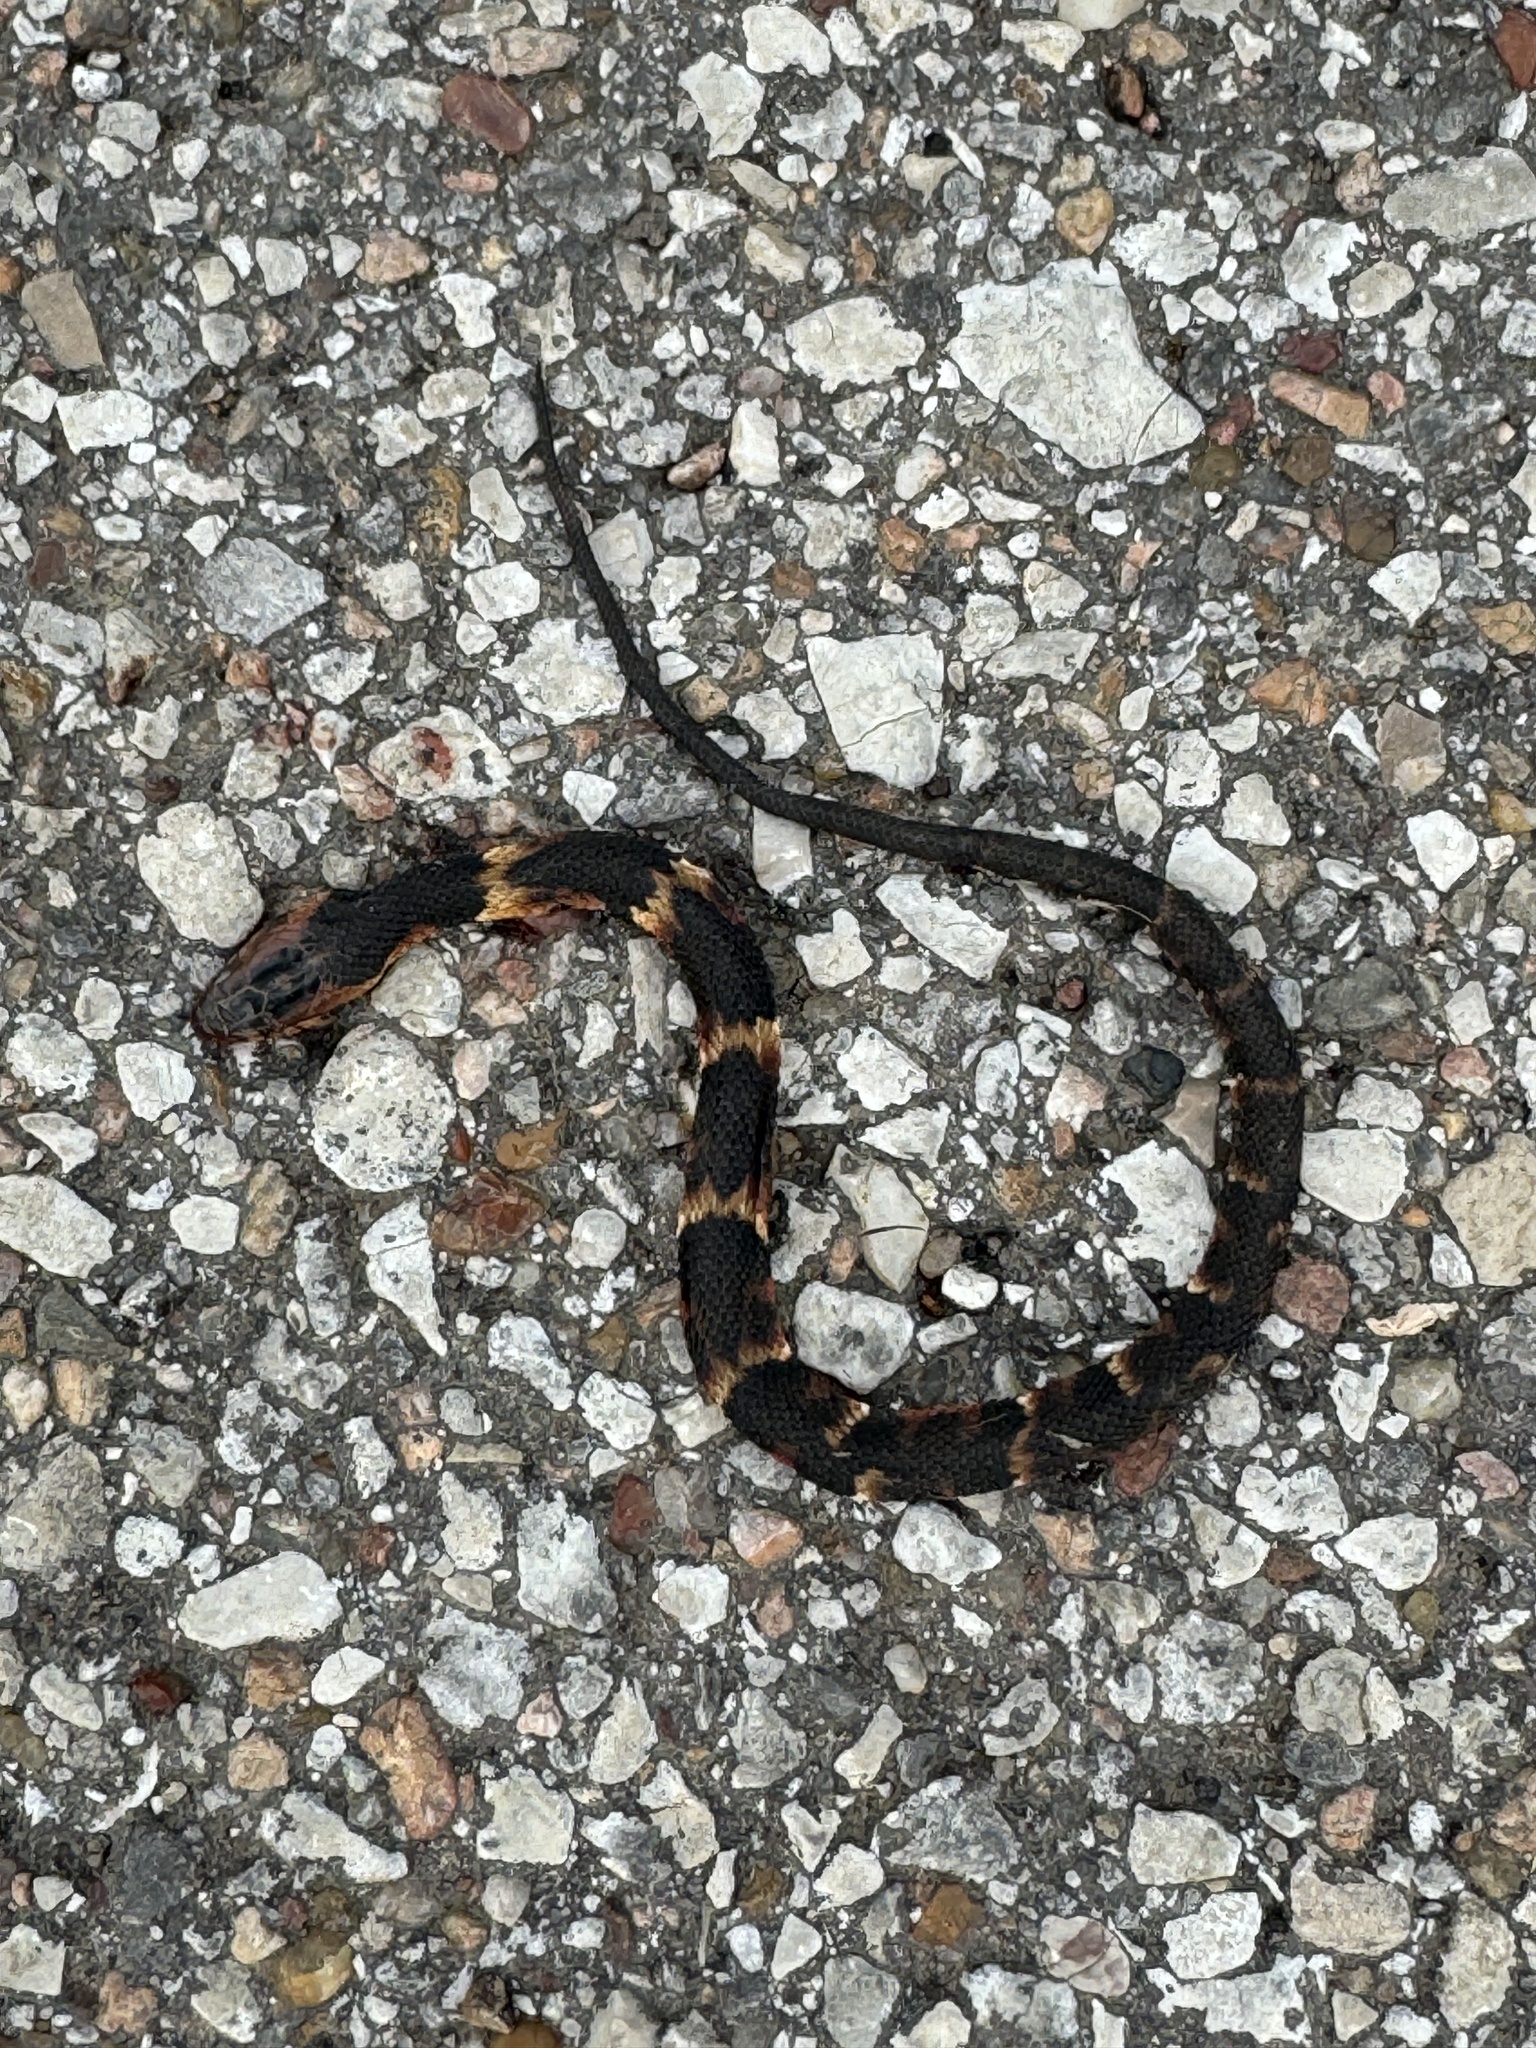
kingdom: Animalia
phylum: Chordata
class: Squamata
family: Colubridae
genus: Nerodia
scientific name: Nerodia fasciata
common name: Southern water snake
